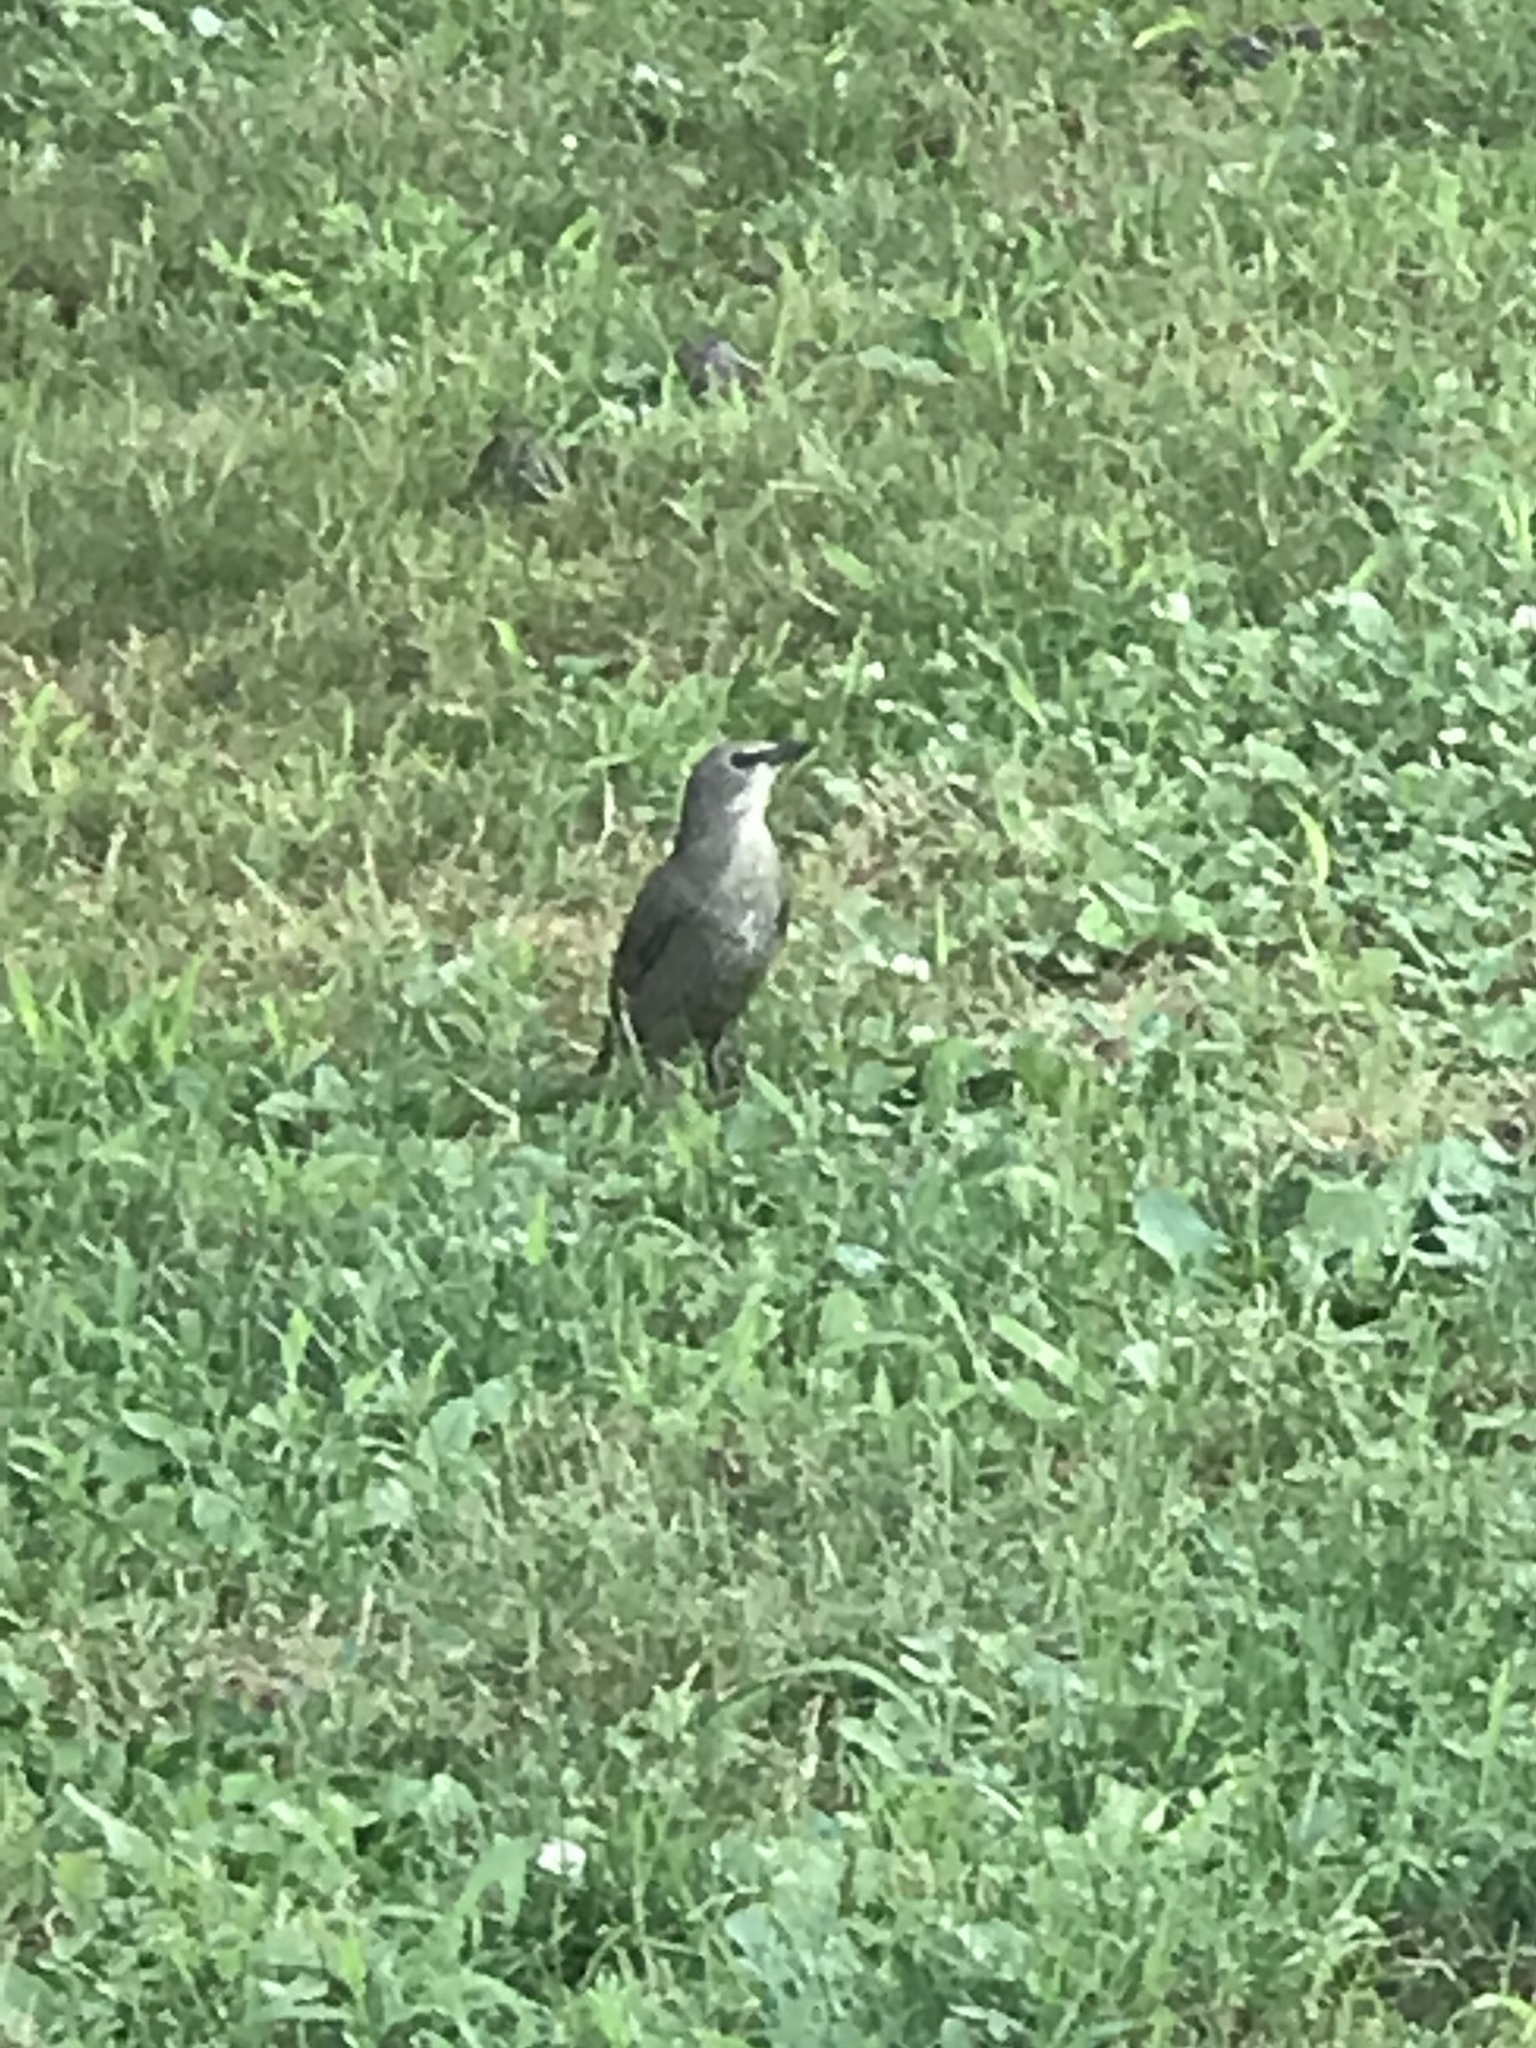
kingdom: Animalia
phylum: Chordata
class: Aves
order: Passeriformes
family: Sturnidae
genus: Sturnus
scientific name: Sturnus vulgaris
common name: Common starling
